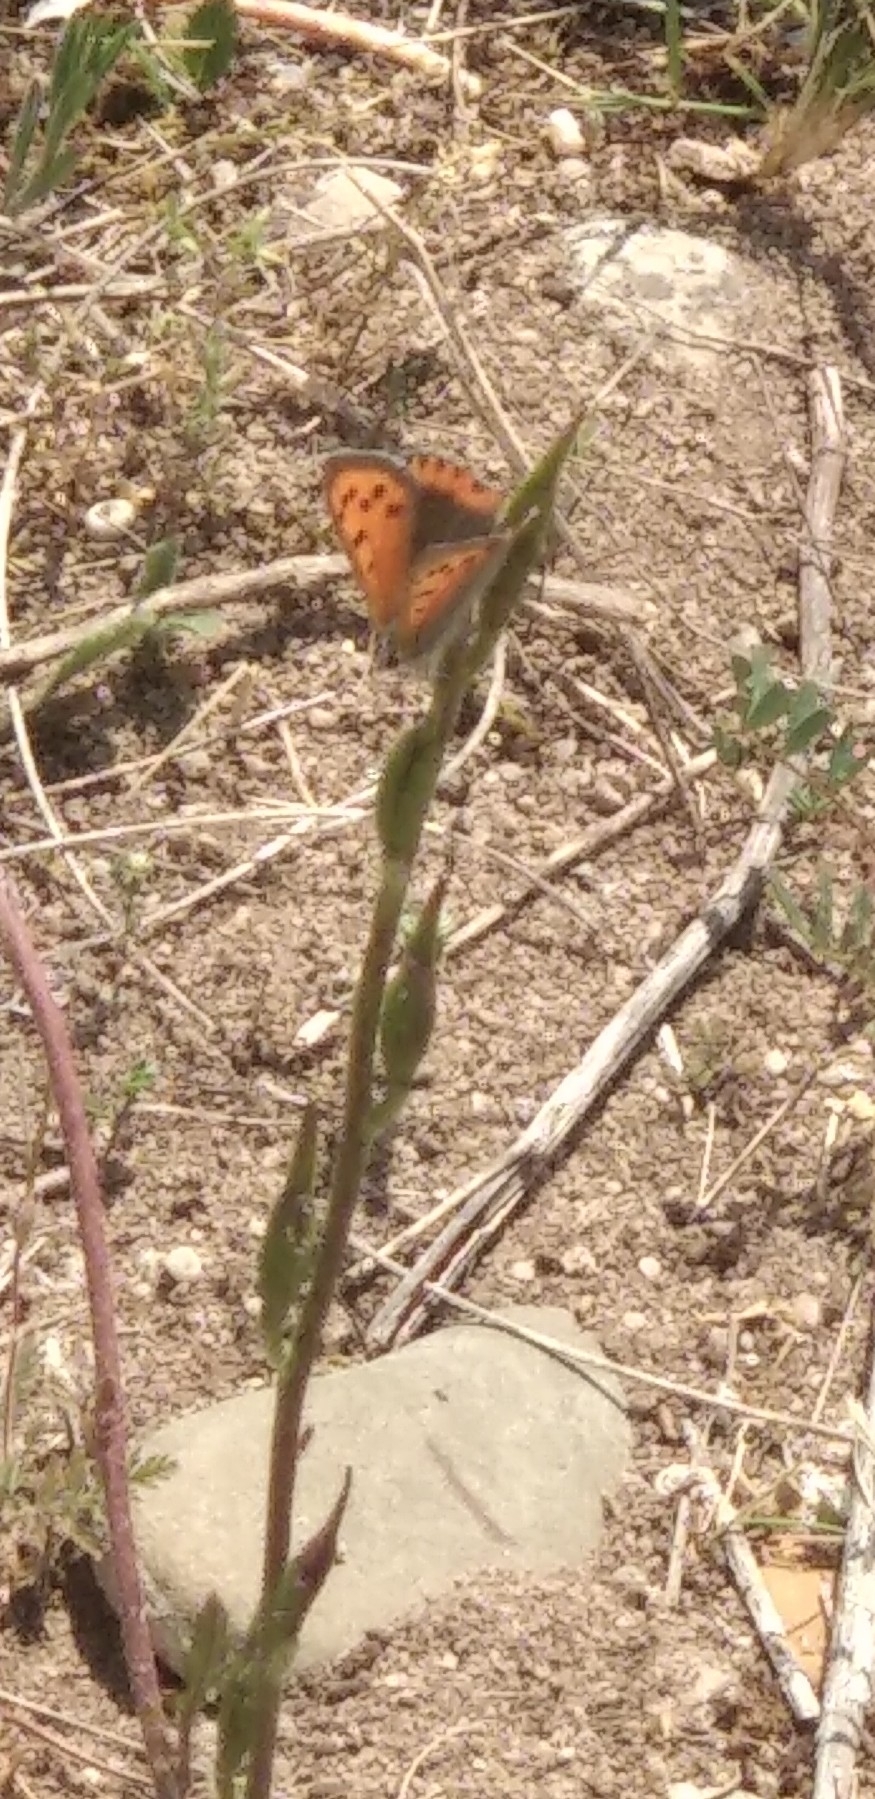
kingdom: Animalia
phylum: Arthropoda
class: Insecta
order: Lepidoptera
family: Lycaenidae
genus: Lycaena
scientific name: Lycaena phlaeas
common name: Small copper
